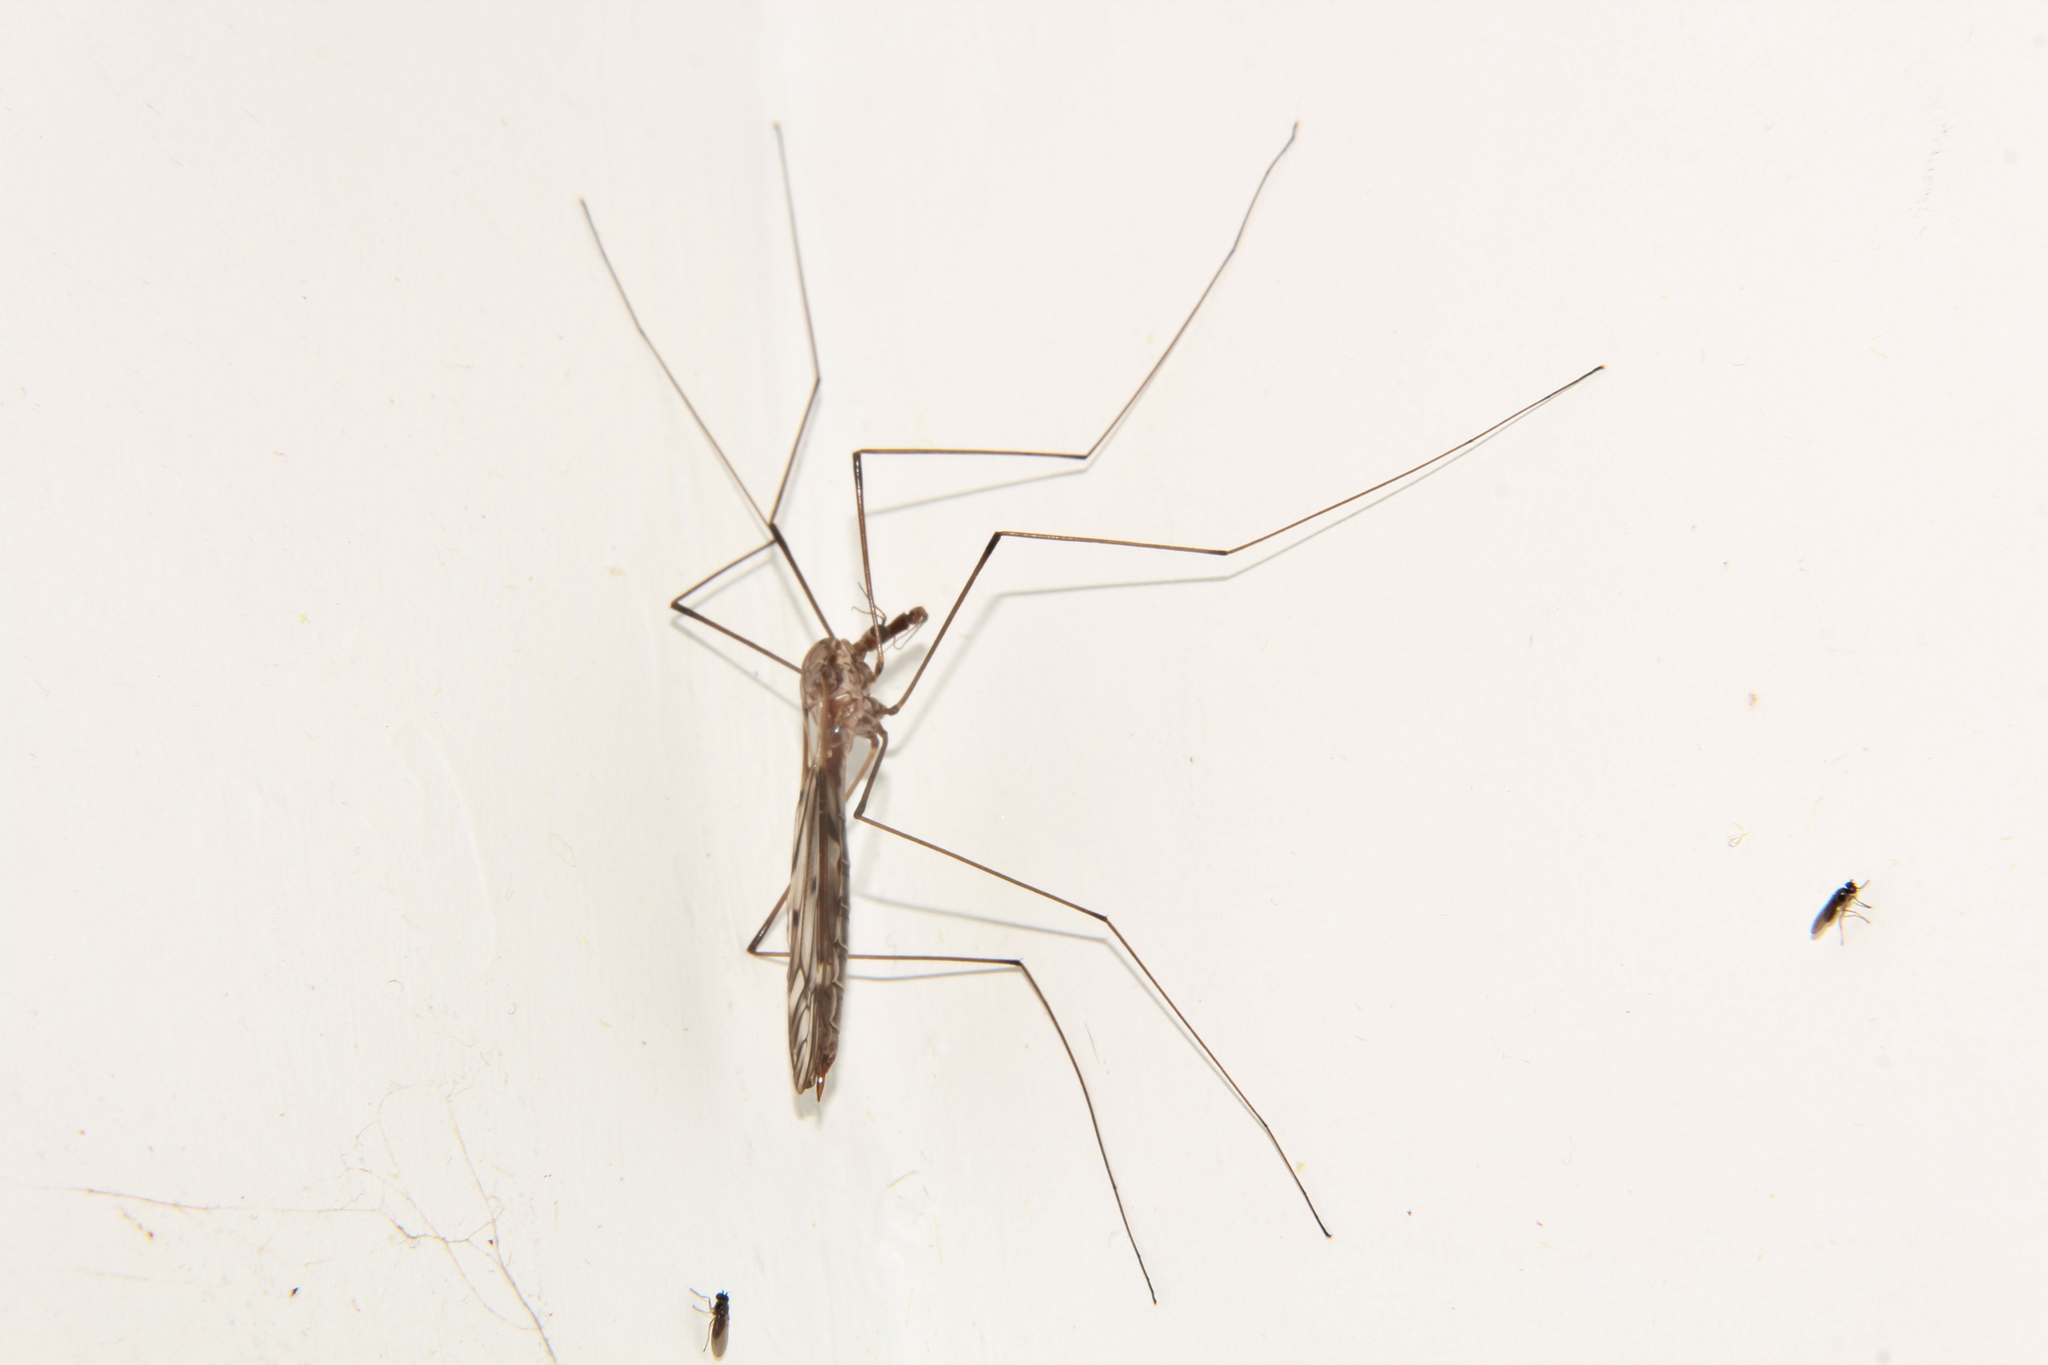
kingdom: Animalia
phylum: Arthropoda
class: Insecta
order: Diptera
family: Tipulidae
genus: Zelandotipula
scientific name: Zelandotipula
